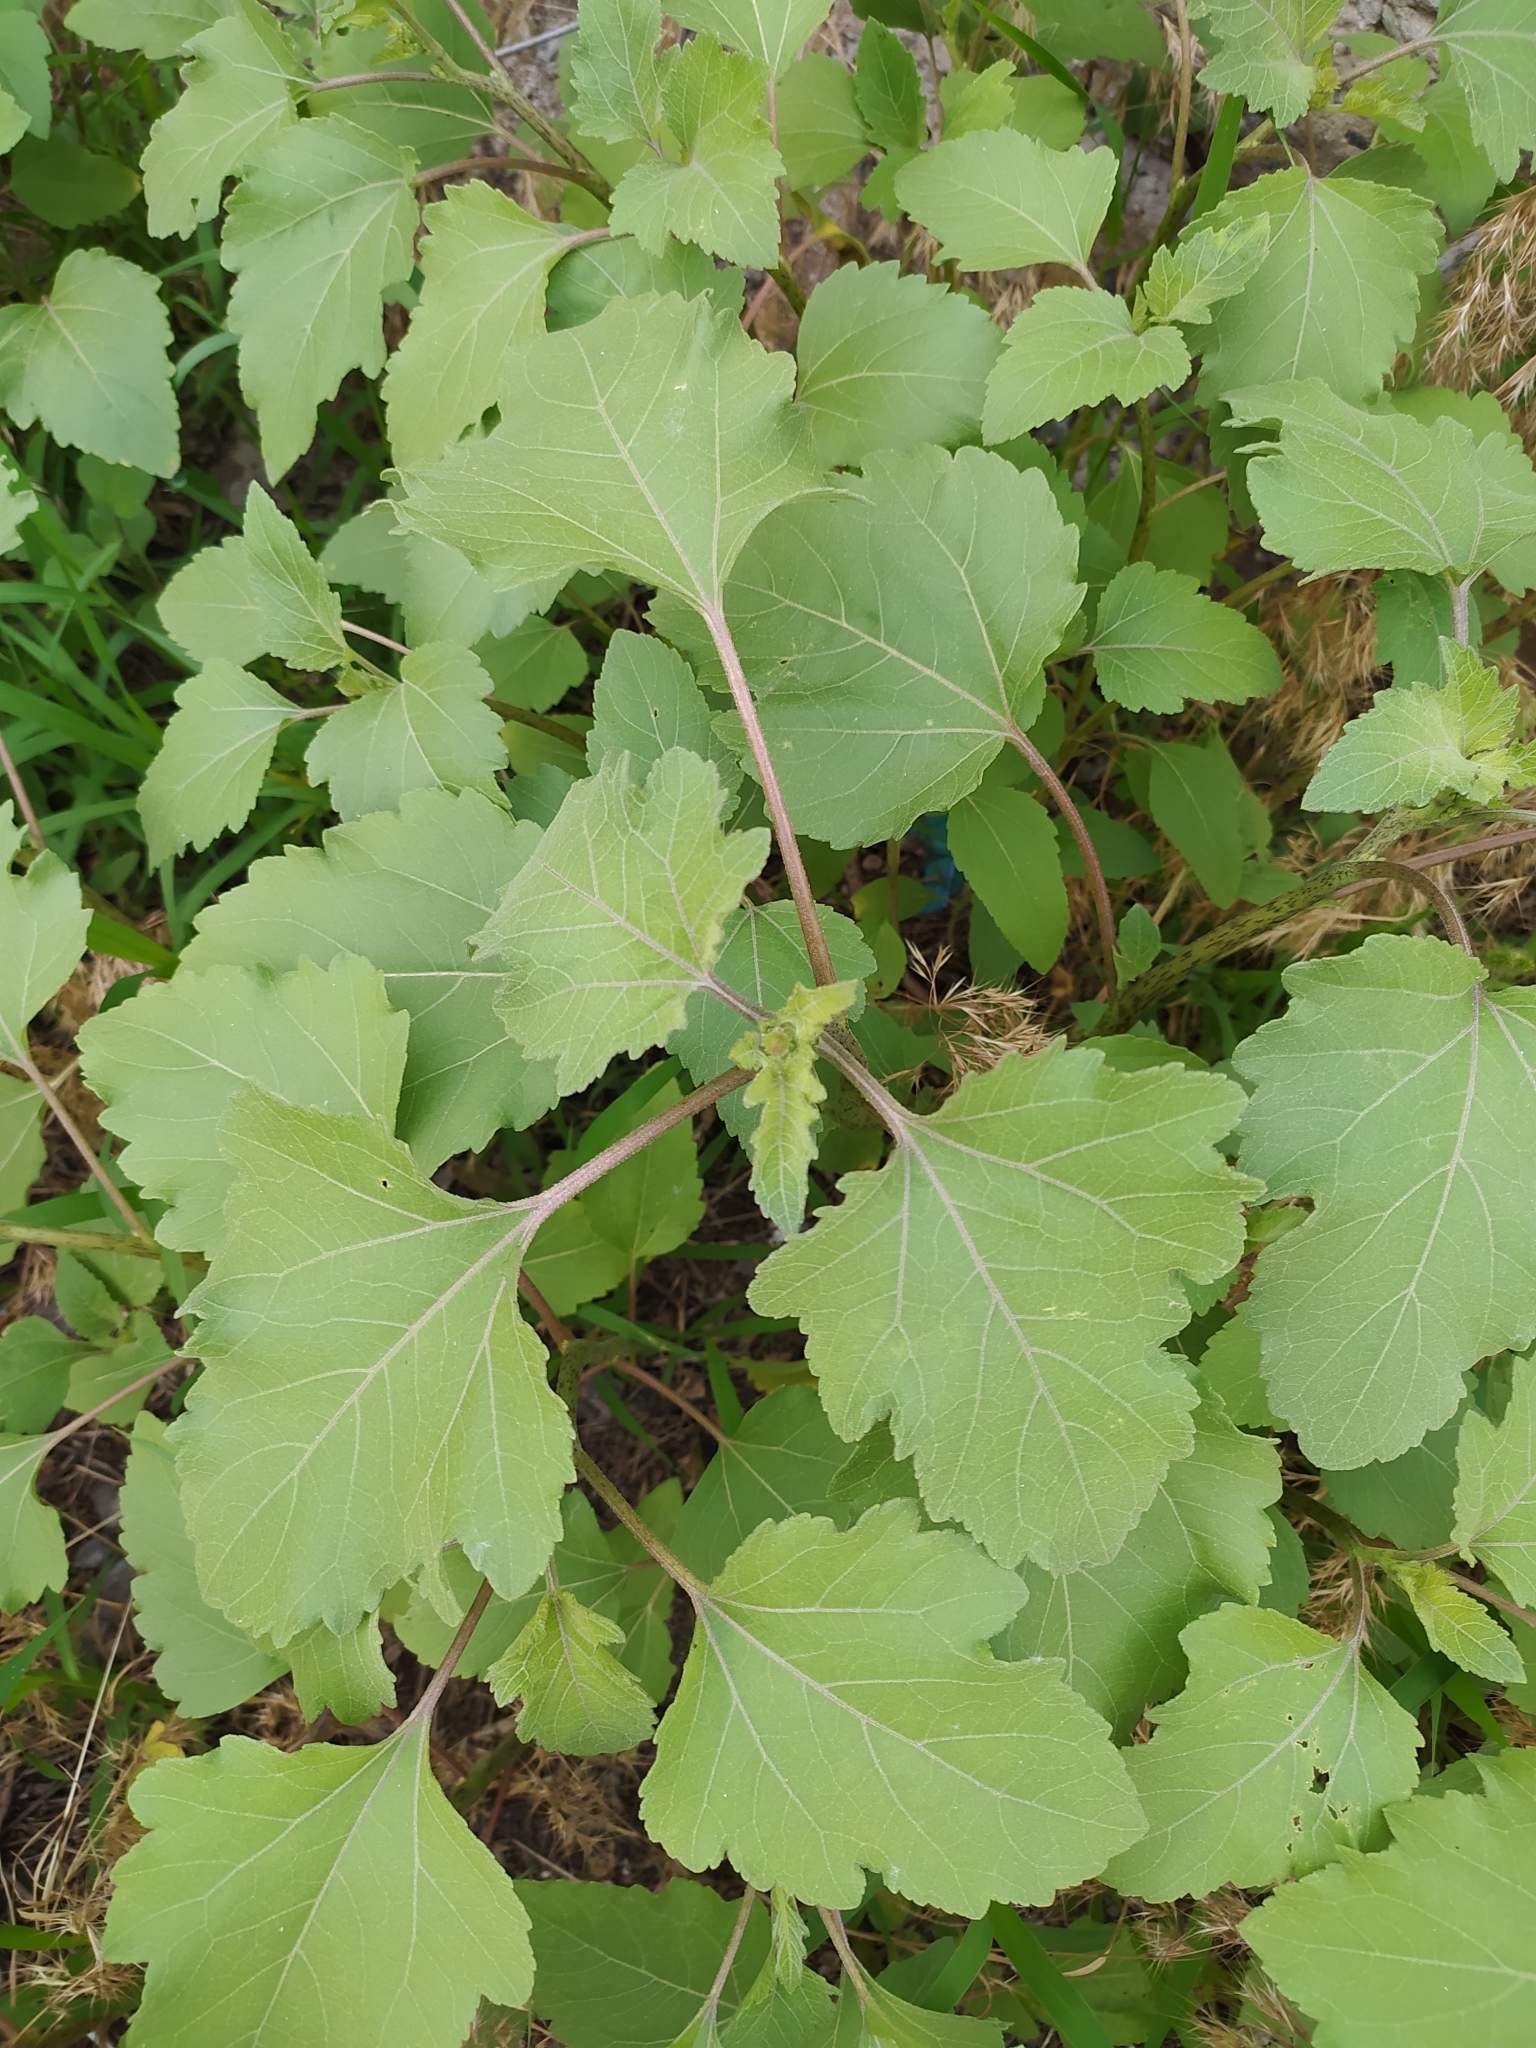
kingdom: Plantae
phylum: Tracheophyta
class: Magnoliopsida
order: Asterales
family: Asteraceae
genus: Xanthium
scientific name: Xanthium orientale
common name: Californian burr
